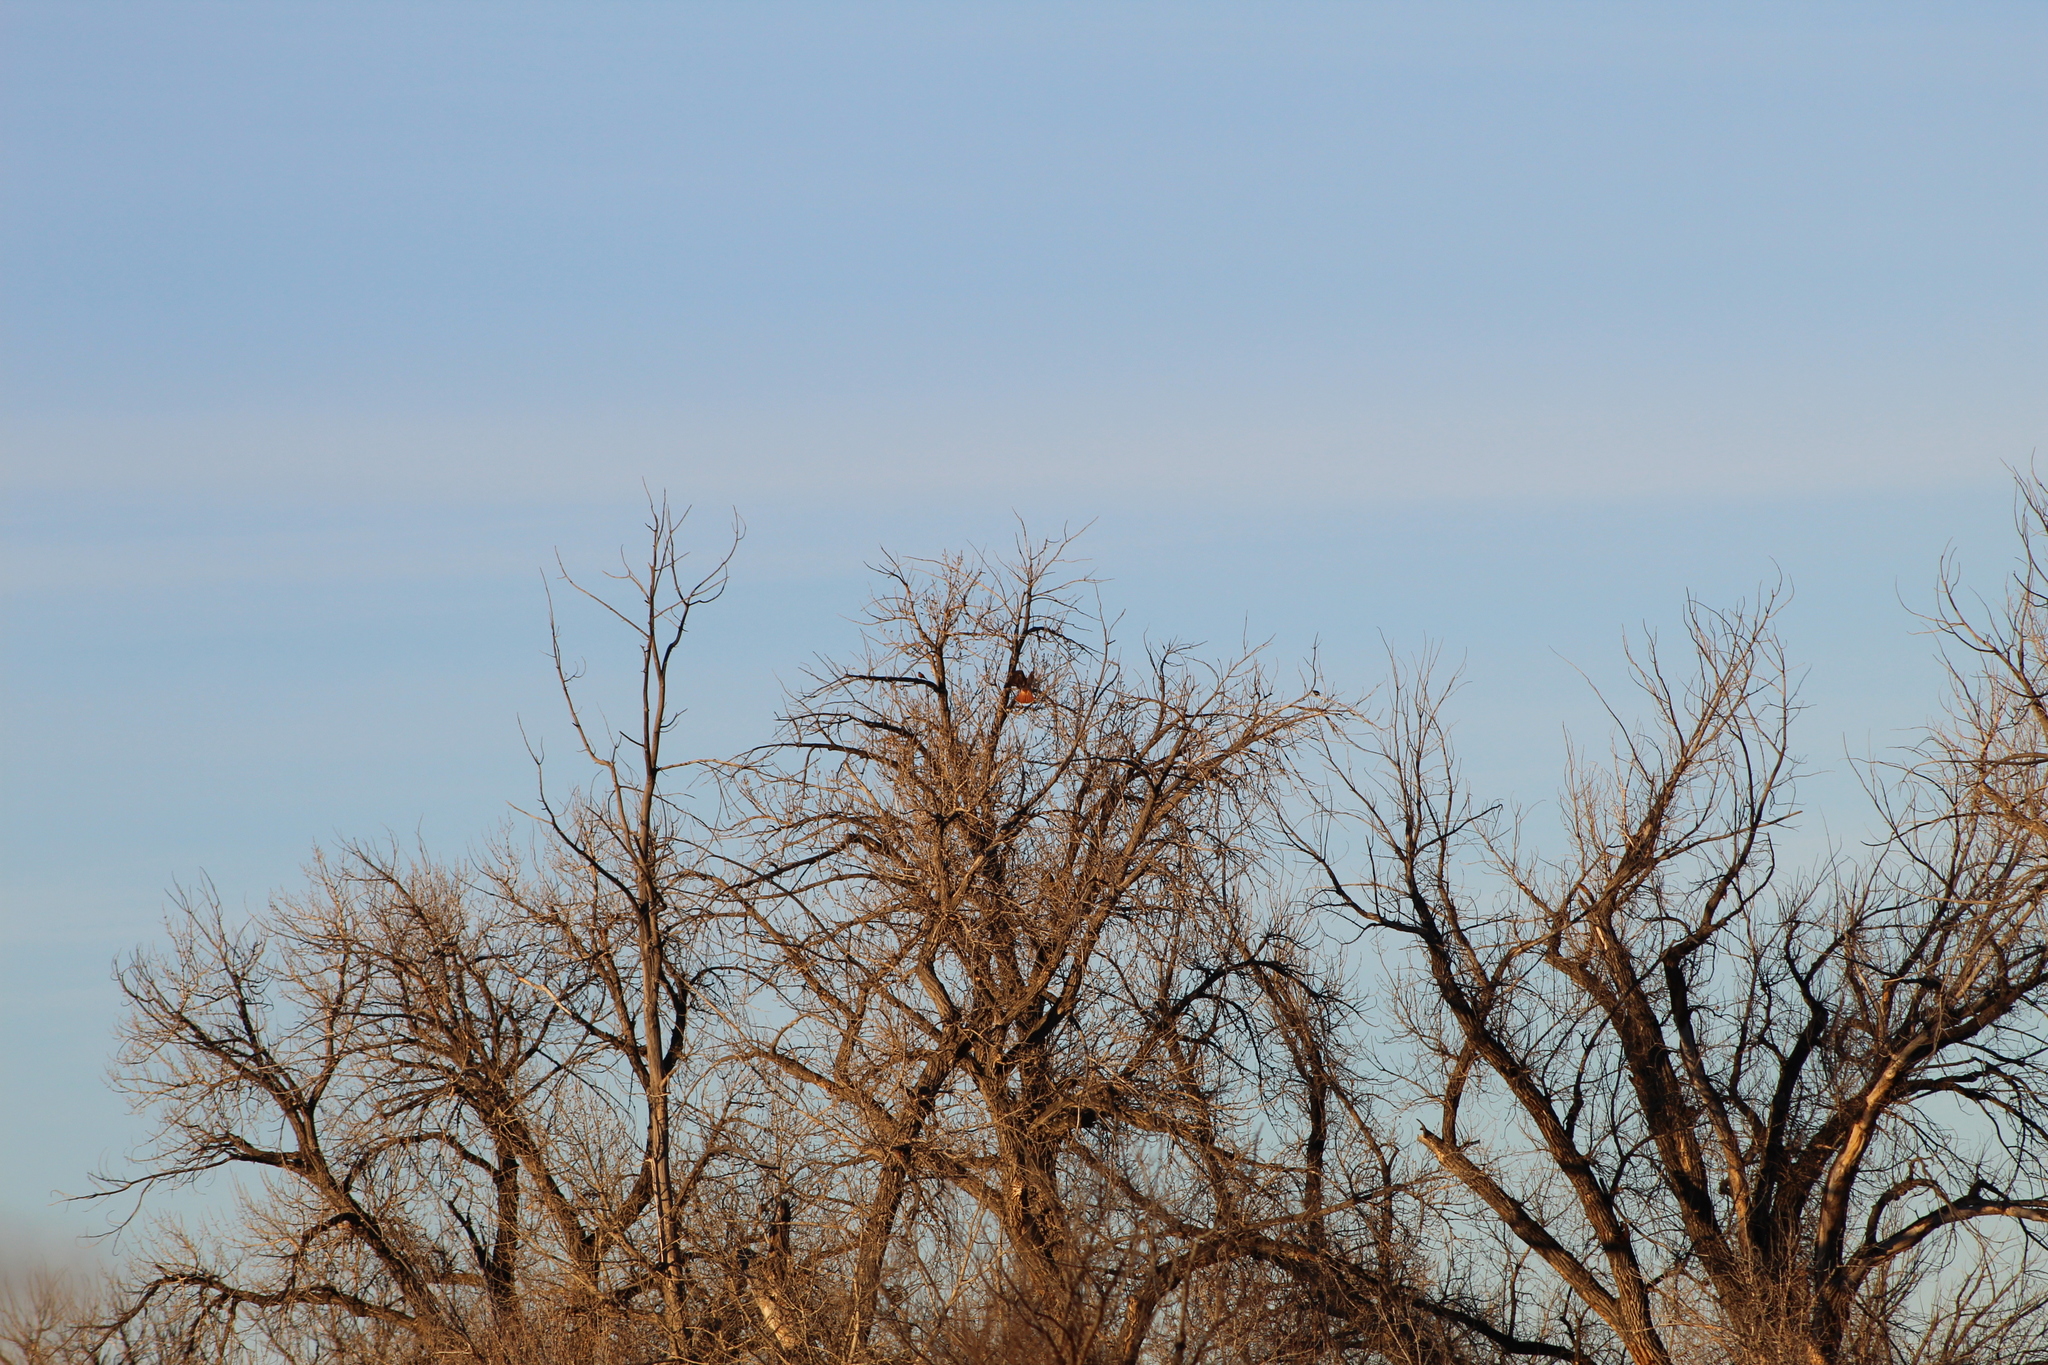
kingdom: Animalia
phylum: Chordata
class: Aves
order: Accipitriformes
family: Accipitridae
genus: Buteo
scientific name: Buteo jamaicensis
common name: Red-tailed hawk
